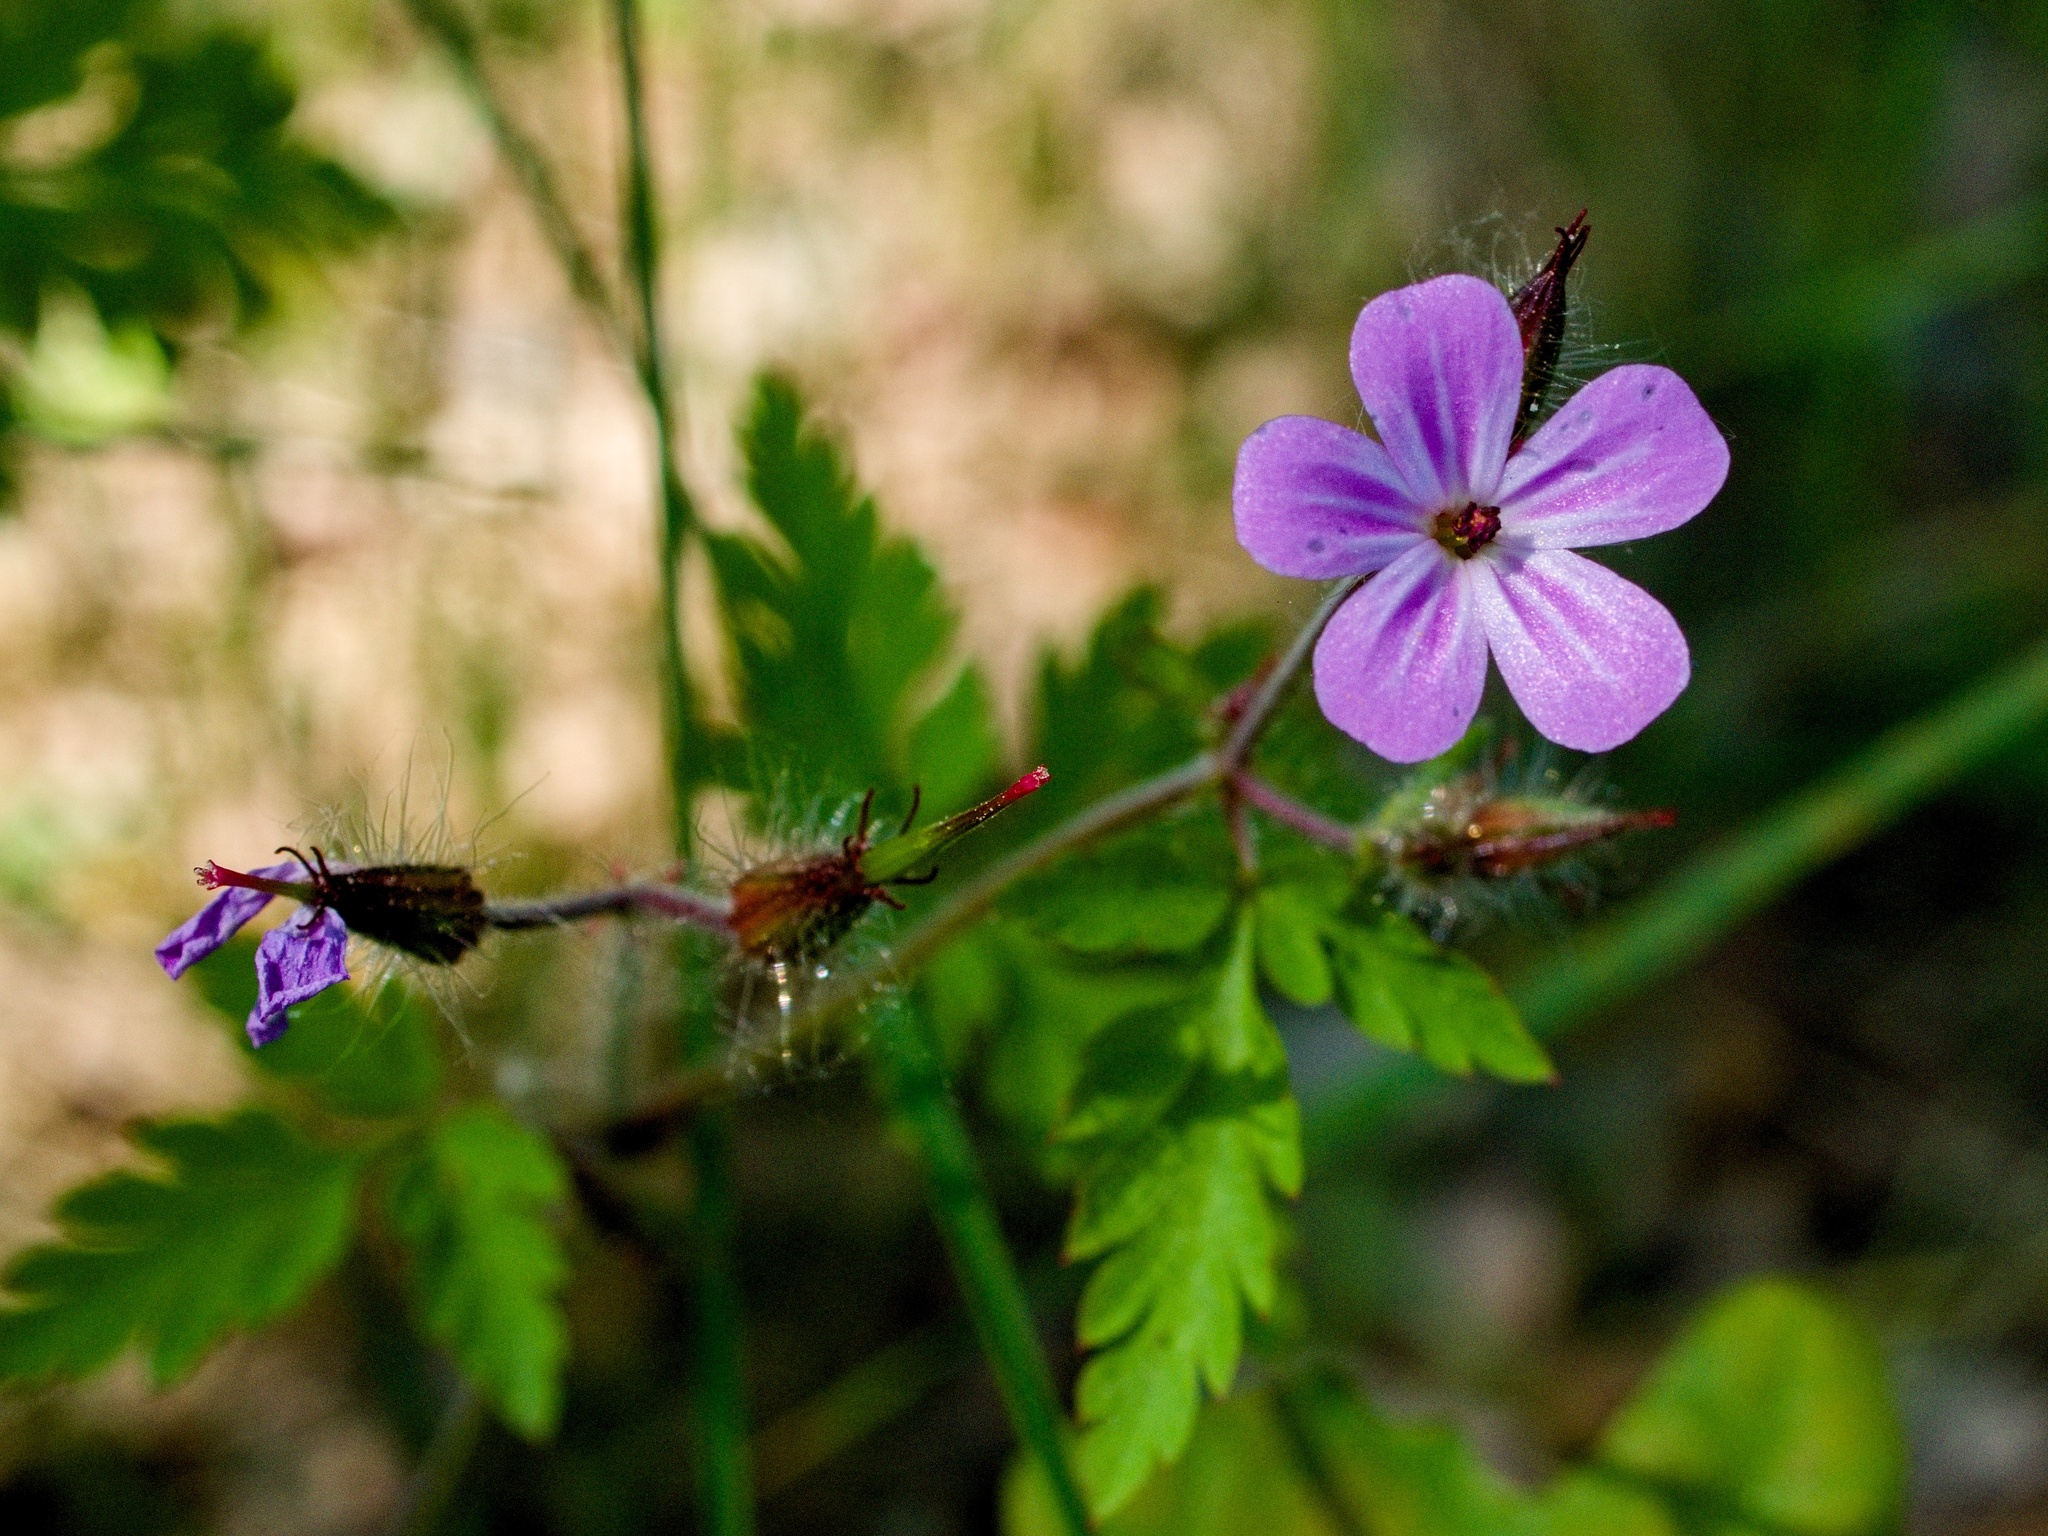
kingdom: Plantae
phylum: Tracheophyta
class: Magnoliopsida
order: Geraniales
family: Geraniaceae
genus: Geranium
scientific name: Geranium robertianum
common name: Herb-robert
